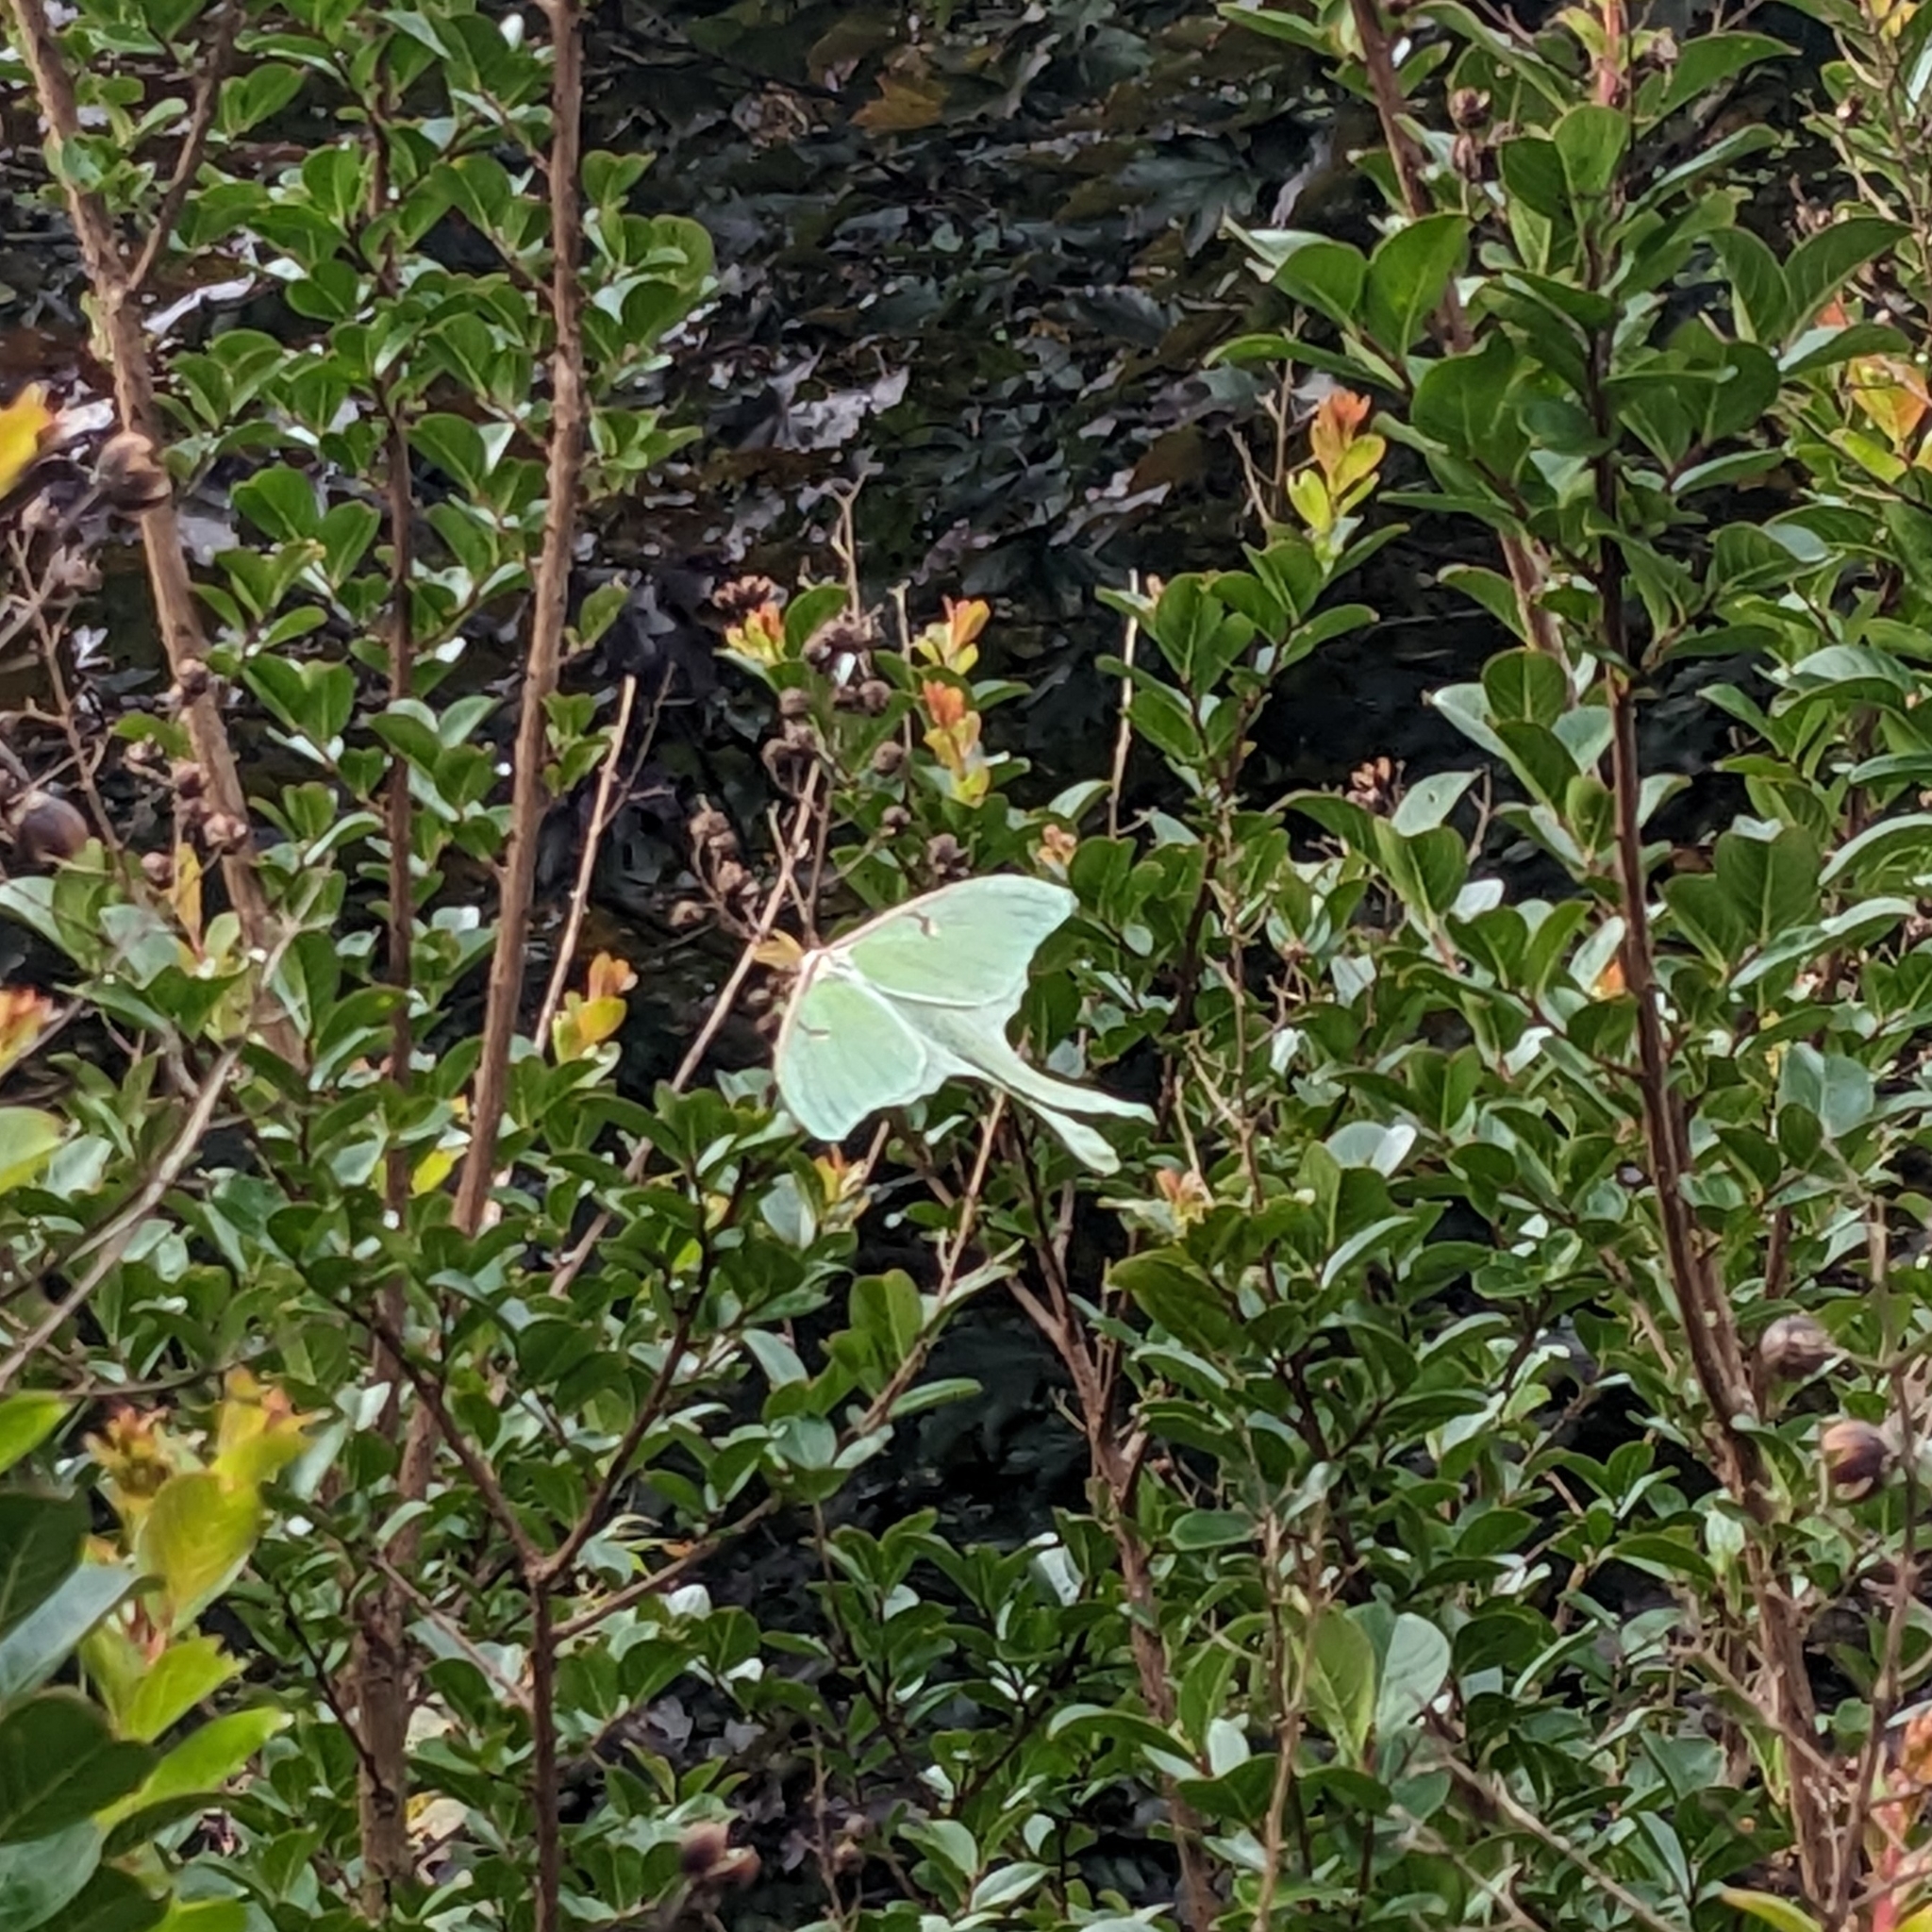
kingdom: Animalia
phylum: Arthropoda
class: Insecta
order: Lepidoptera
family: Saturniidae
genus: Actias
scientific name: Actias luna
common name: Luna moth
